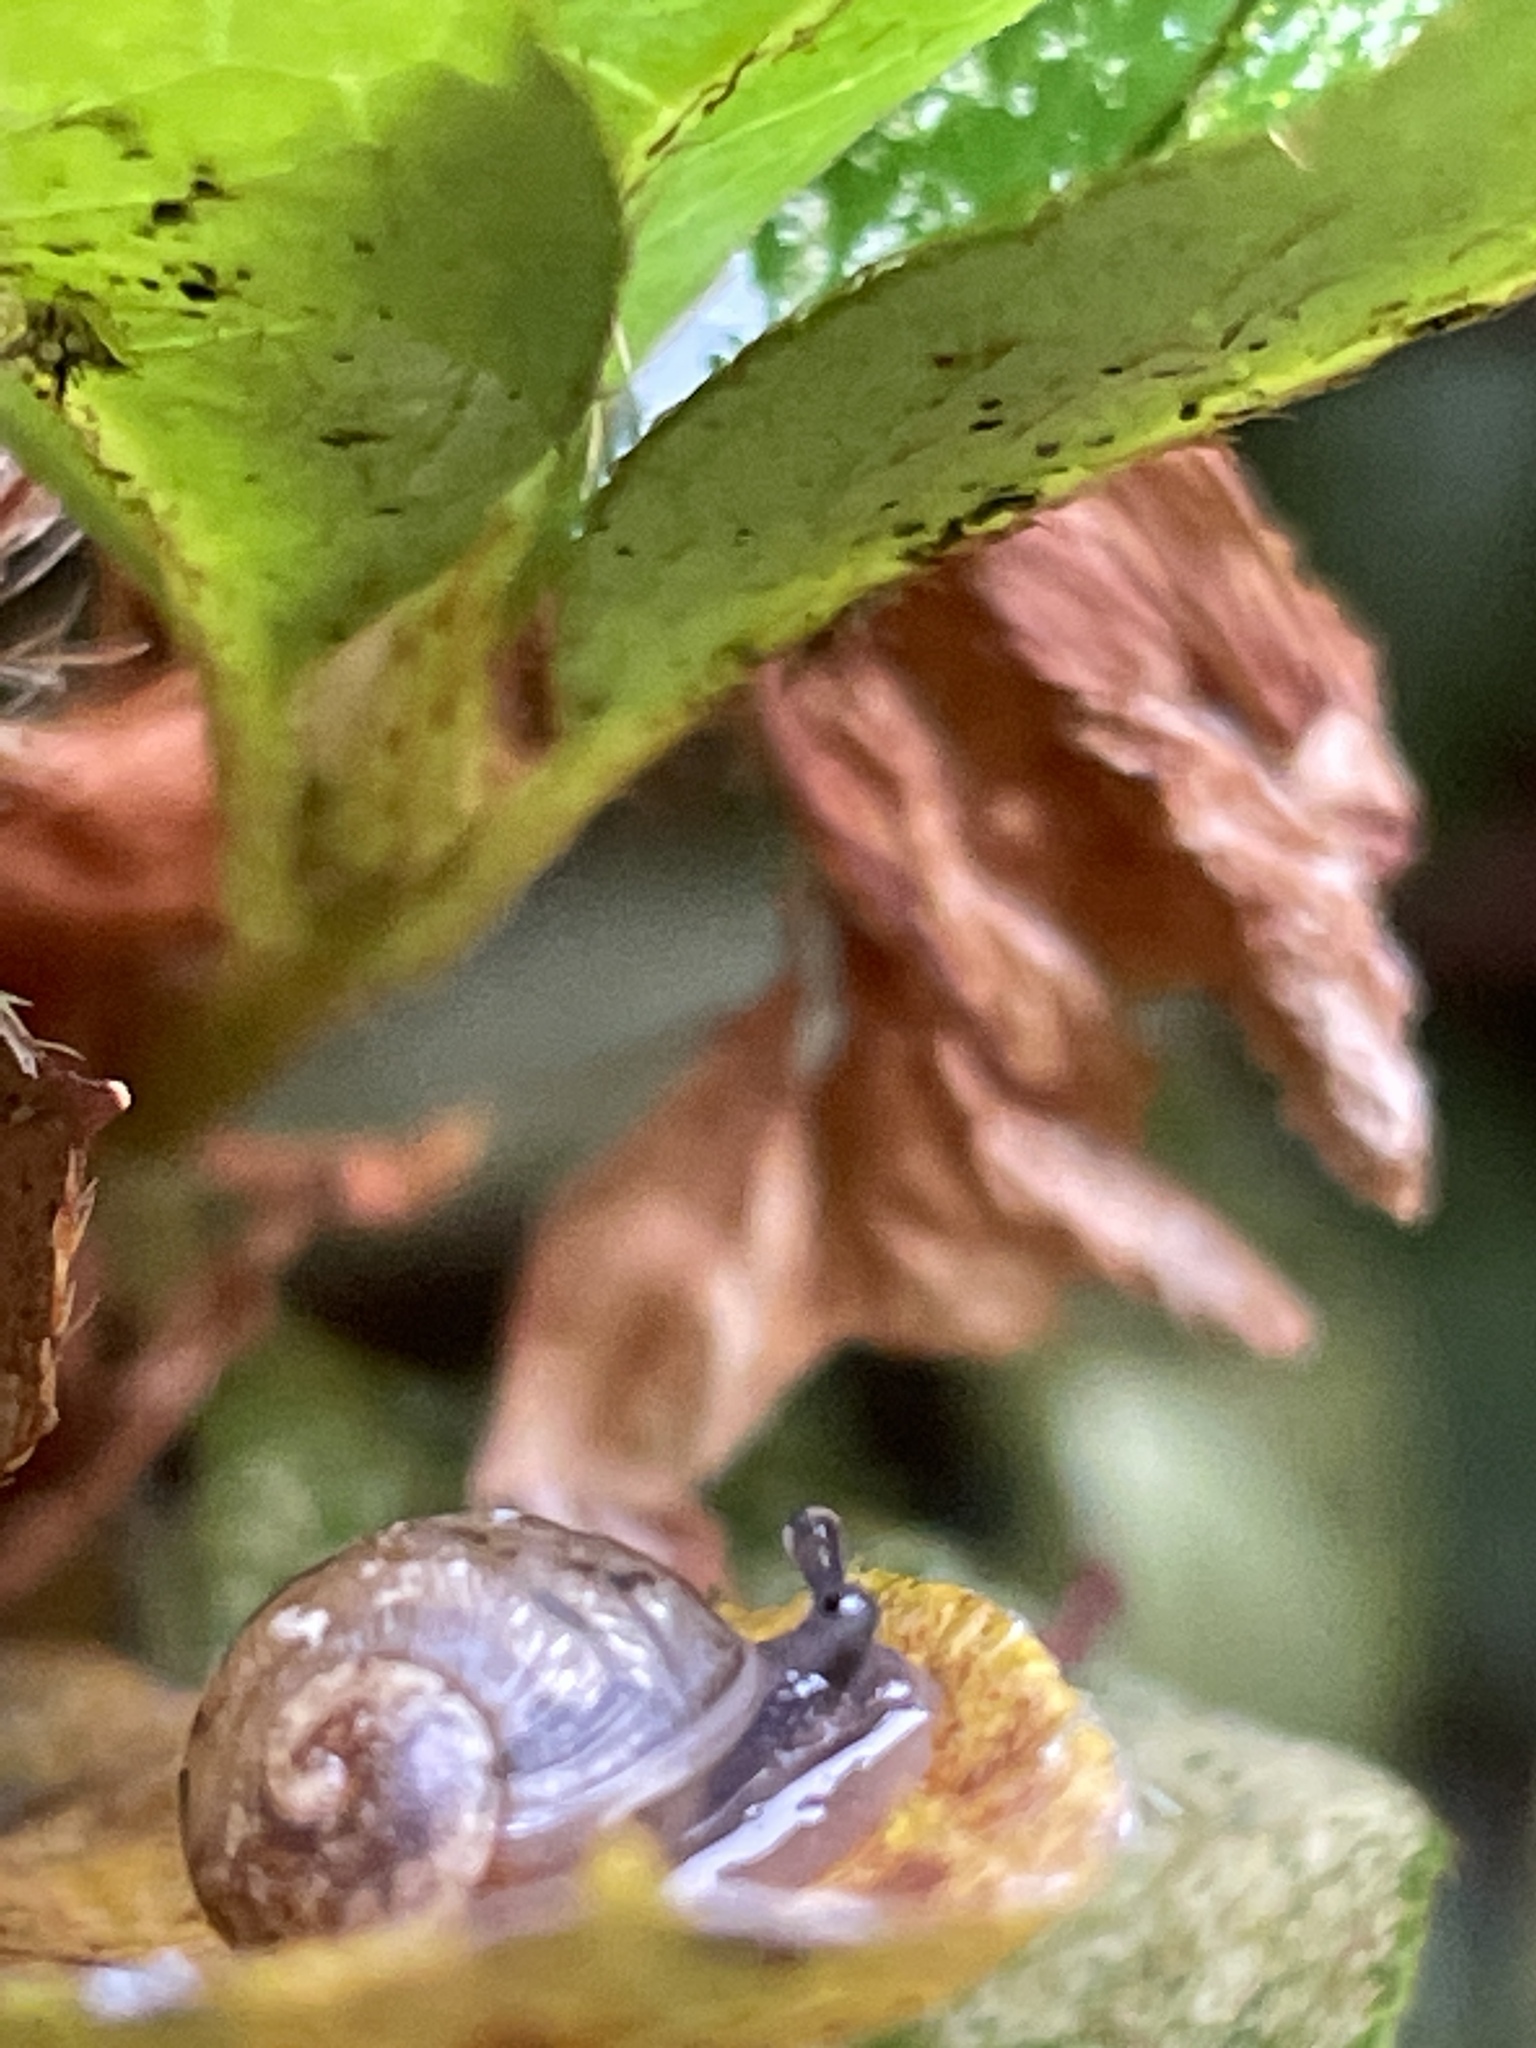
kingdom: Animalia
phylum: Mollusca
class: Gastropoda
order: Stylommatophora
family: Helicidae
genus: Cornu
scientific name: Cornu aspersum
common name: Brown garden snail
